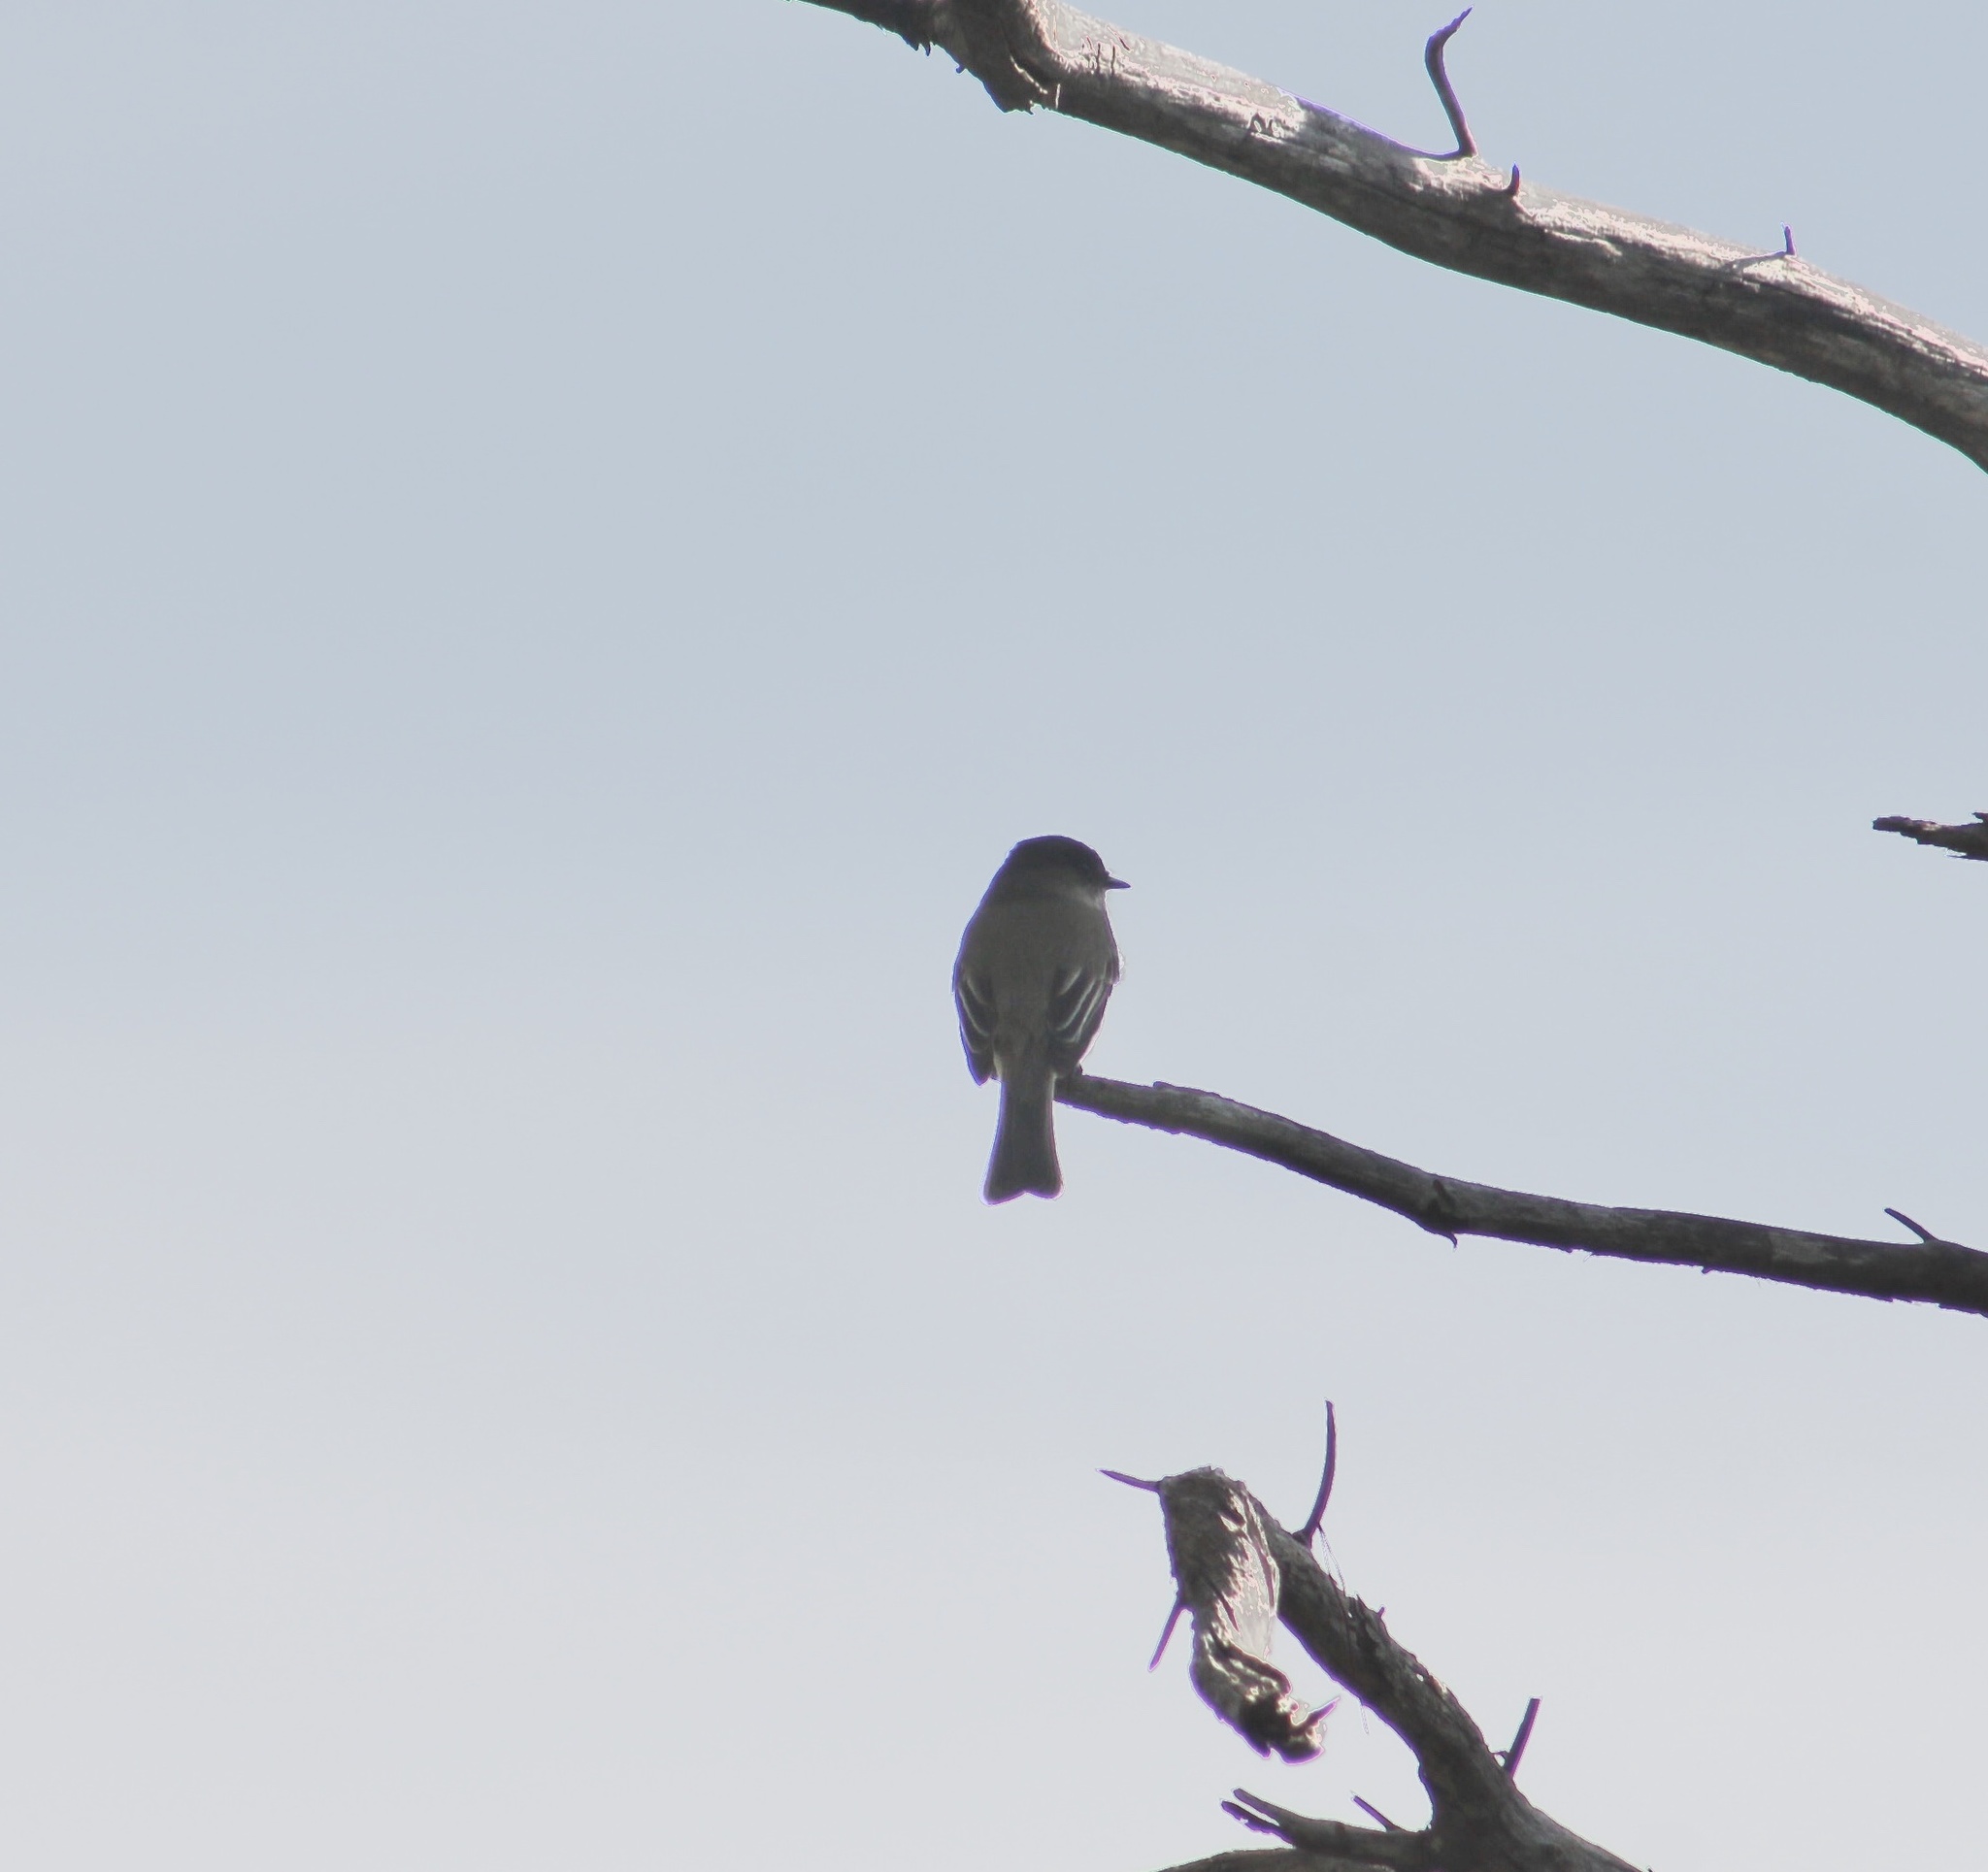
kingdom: Animalia
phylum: Chordata
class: Aves
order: Passeriformes
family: Tyrannidae
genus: Sayornis
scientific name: Sayornis phoebe
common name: Eastern phoebe
